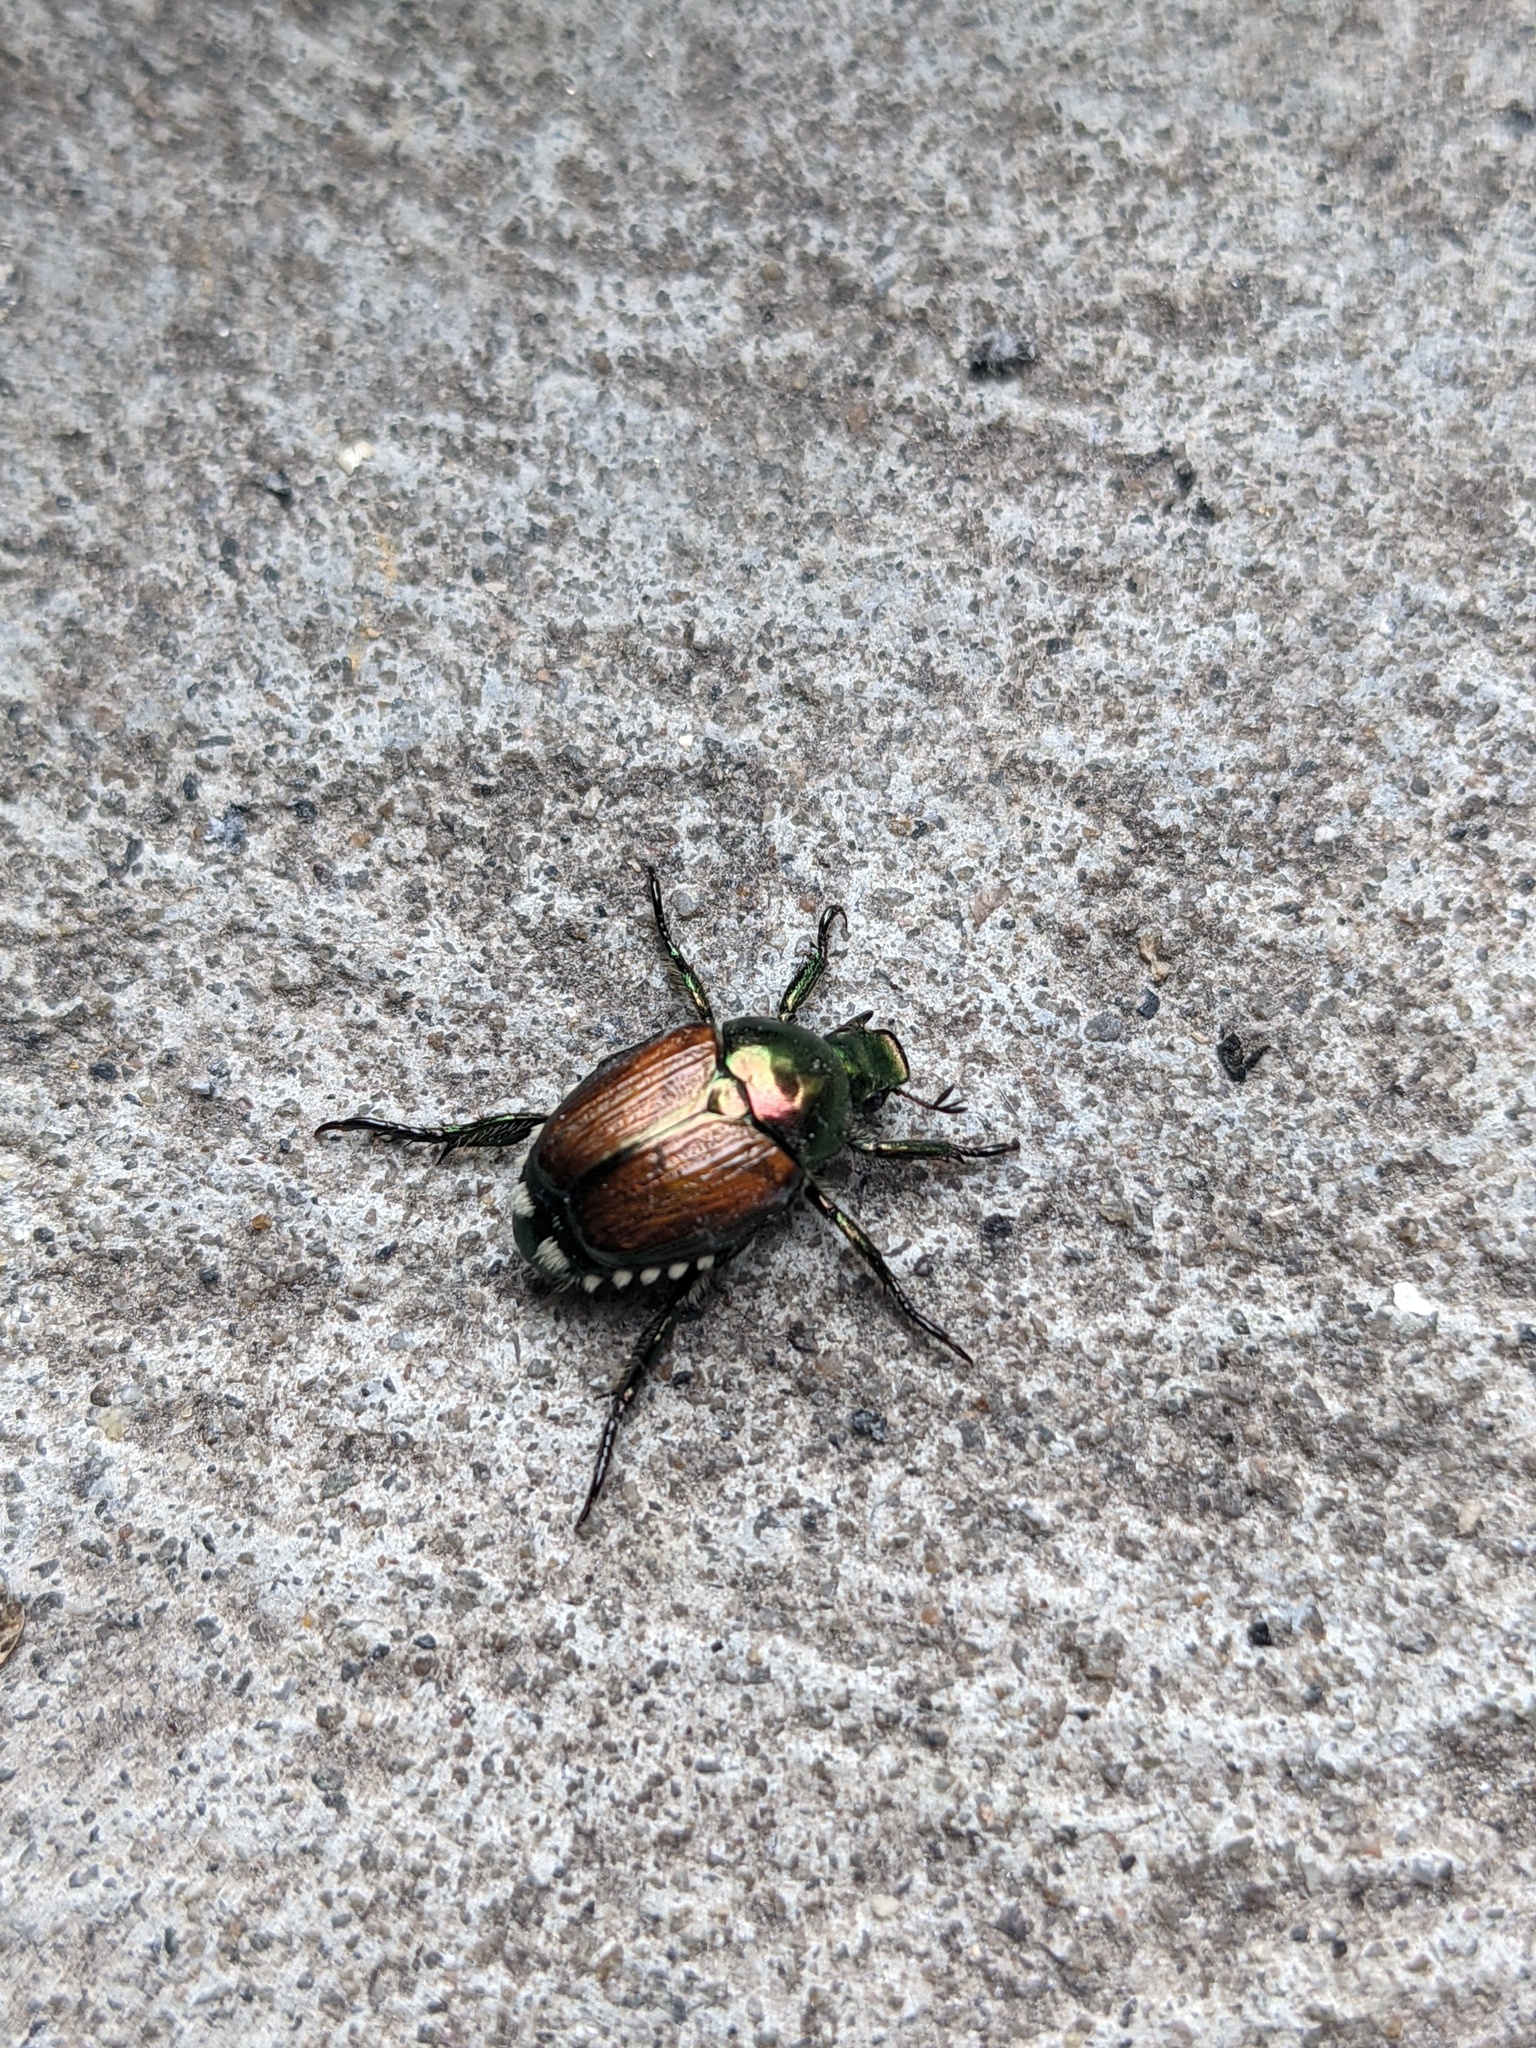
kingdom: Animalia
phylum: Arthropoda
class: Insecta
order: Coleoptera
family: Scarabaeidae
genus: Popillia
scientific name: Popillia japonica
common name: Japanese beetle
